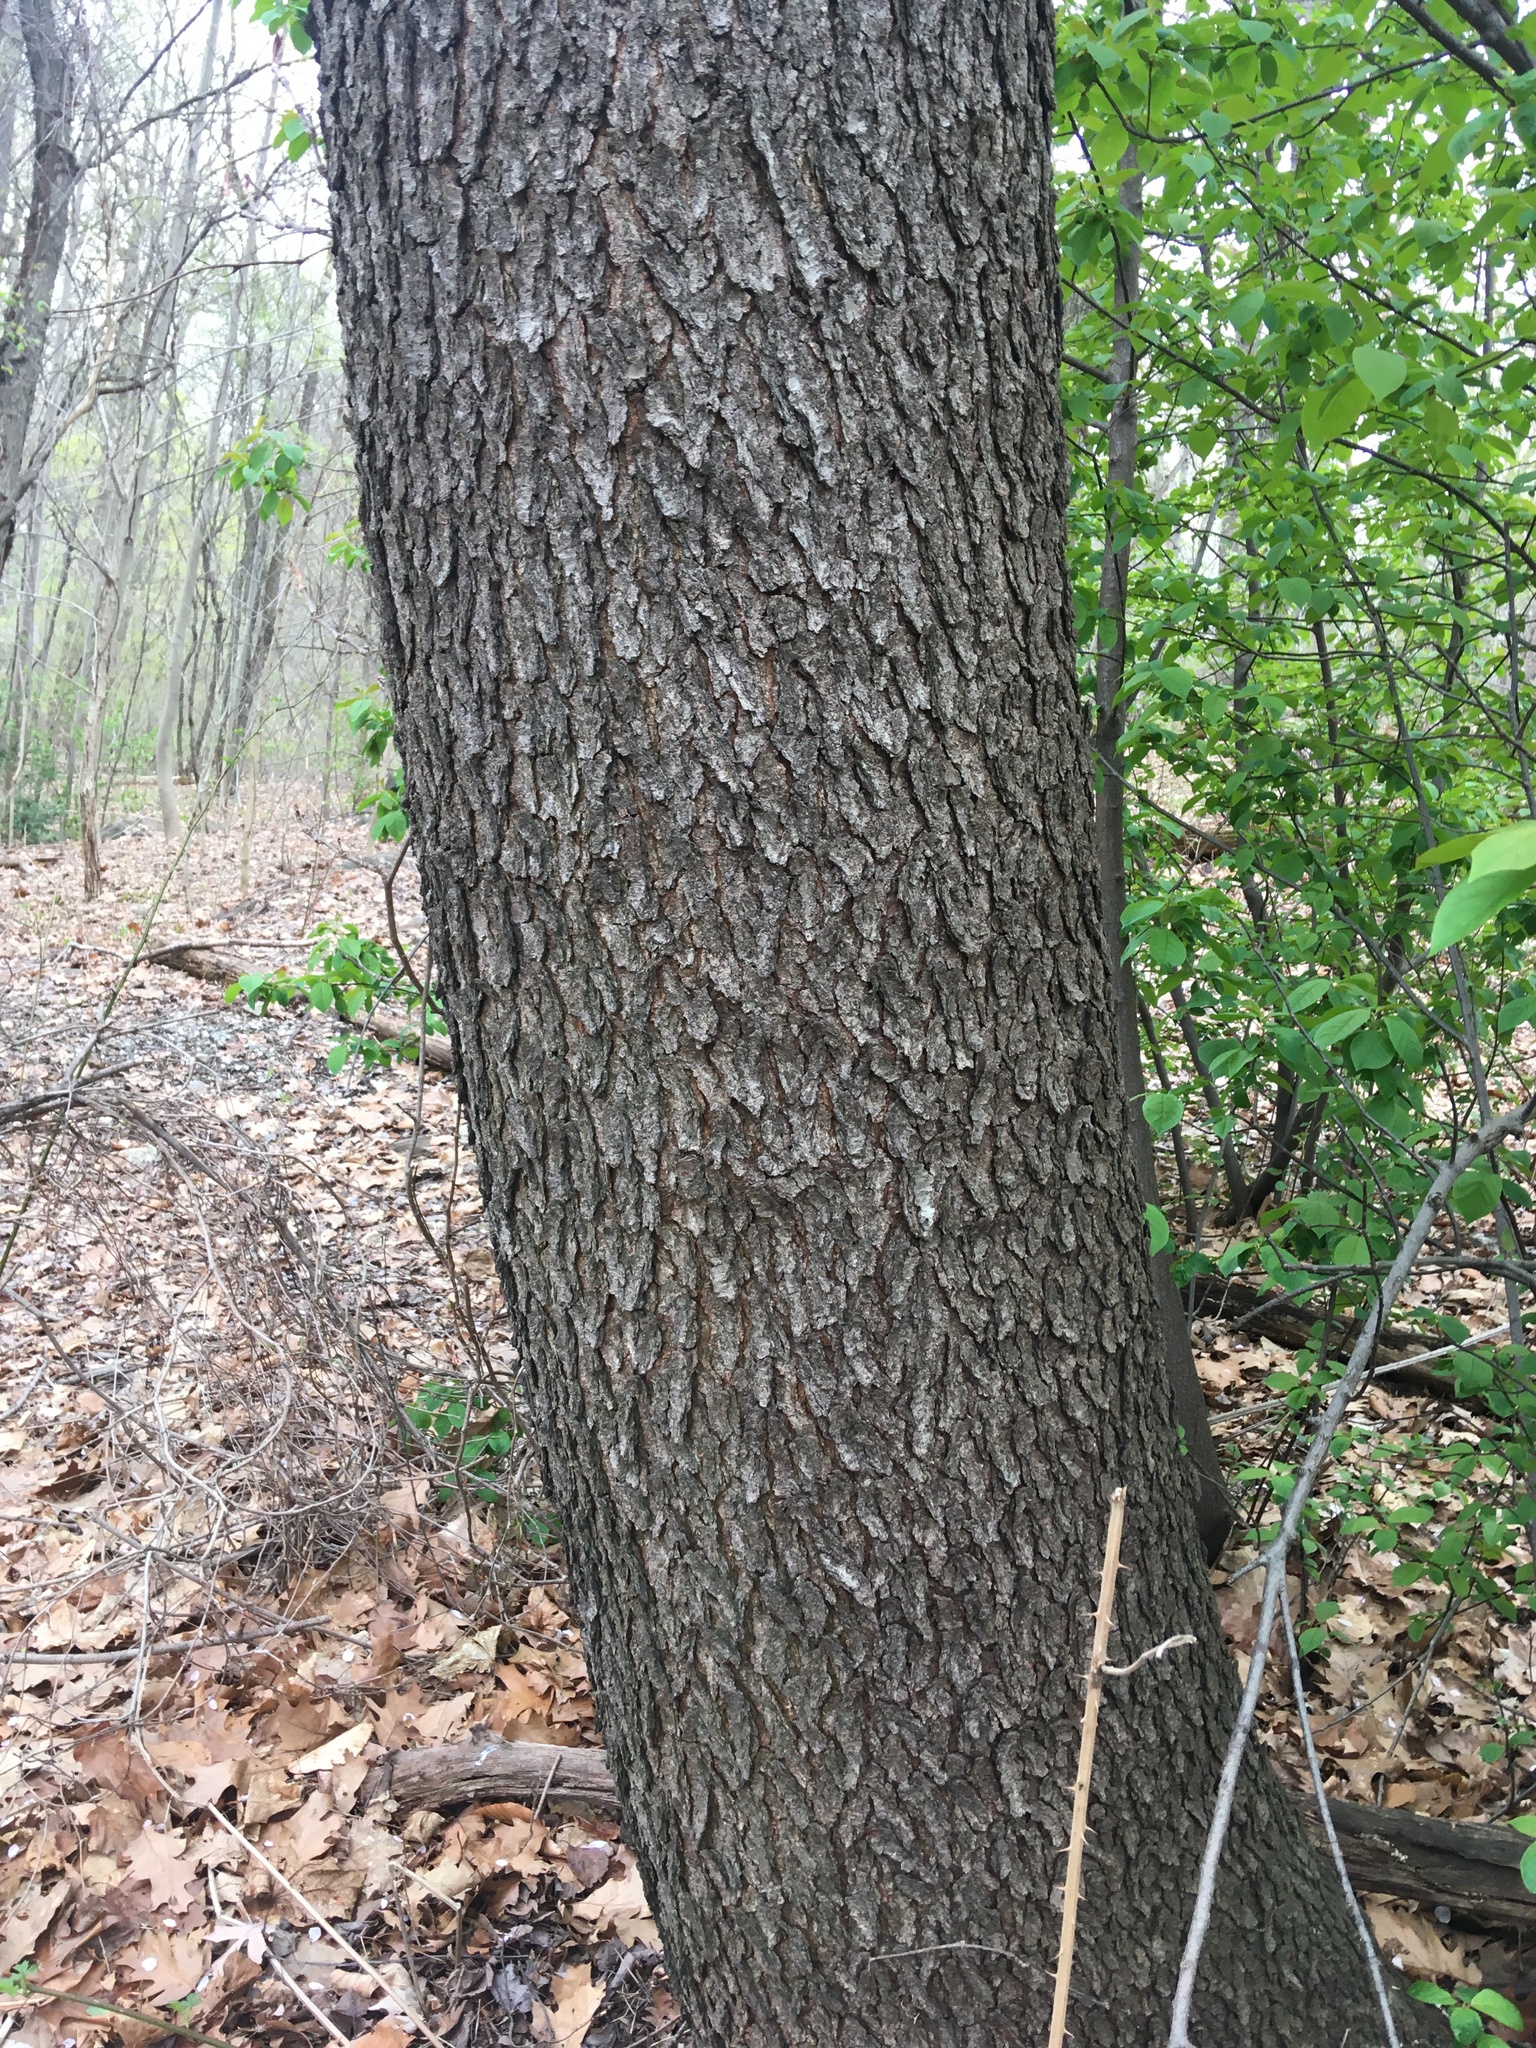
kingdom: Plantae
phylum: Tracheophyta
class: Magnoliopsida
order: Rosales
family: Rosaceae
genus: Prunus
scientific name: Prunus serotina
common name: Black cherry
